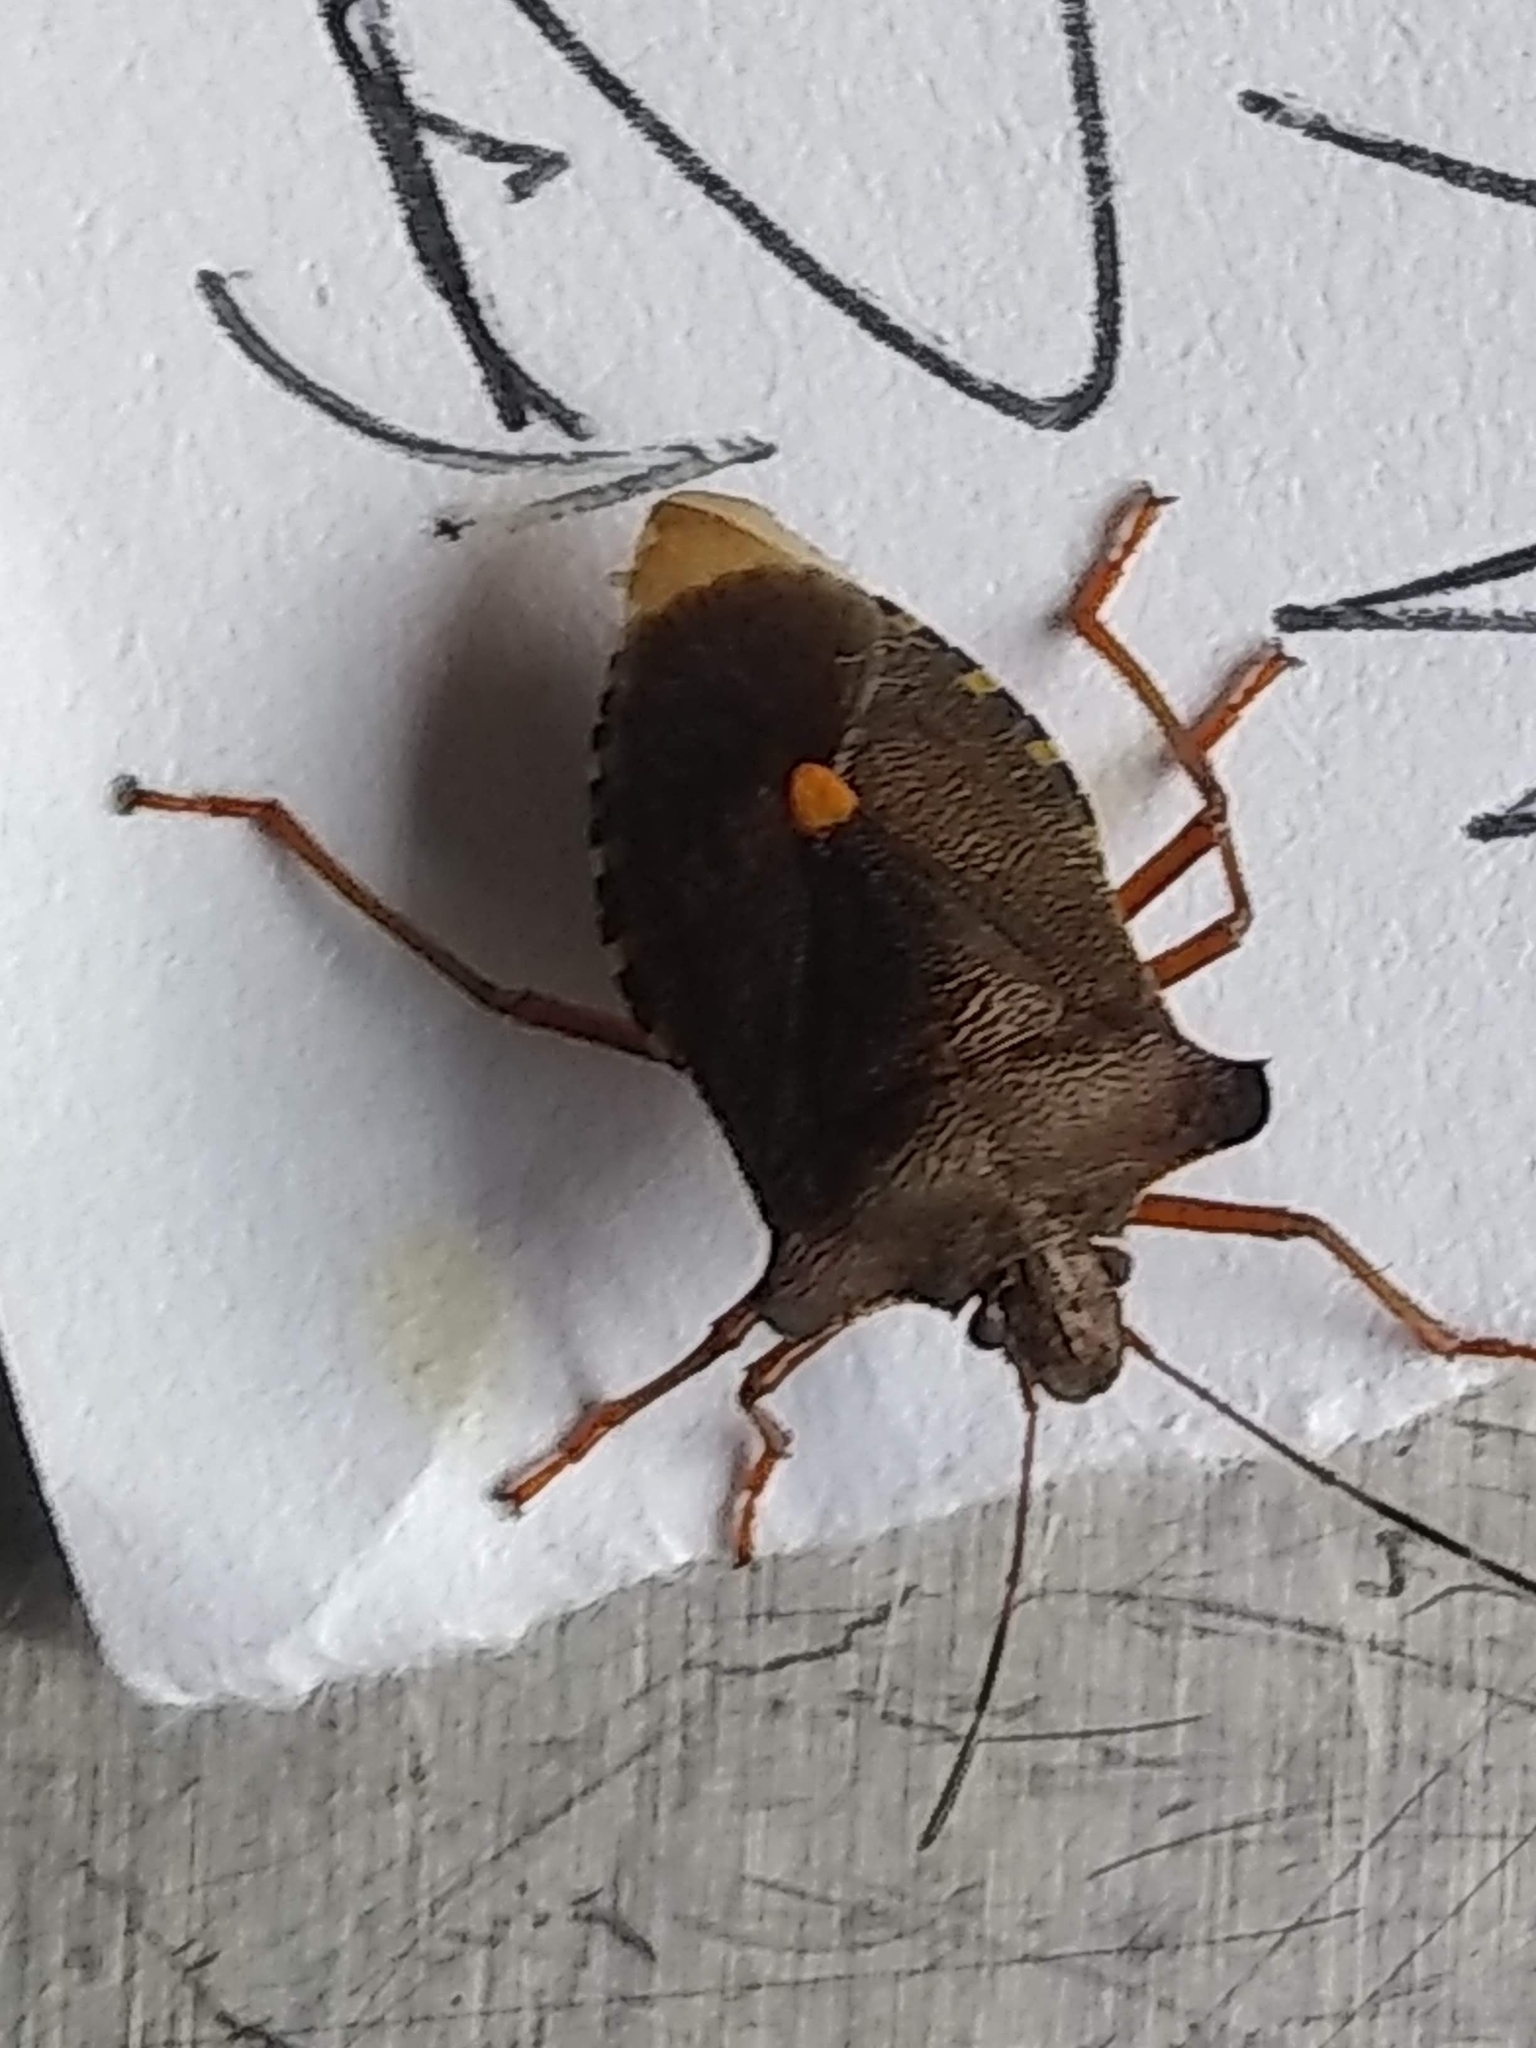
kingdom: Animalia
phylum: Arthropoda
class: Insecta
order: Hemiptera
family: Pentatomidae
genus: Pentatoma
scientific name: Pentatoma rufipes
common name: Forest bug
